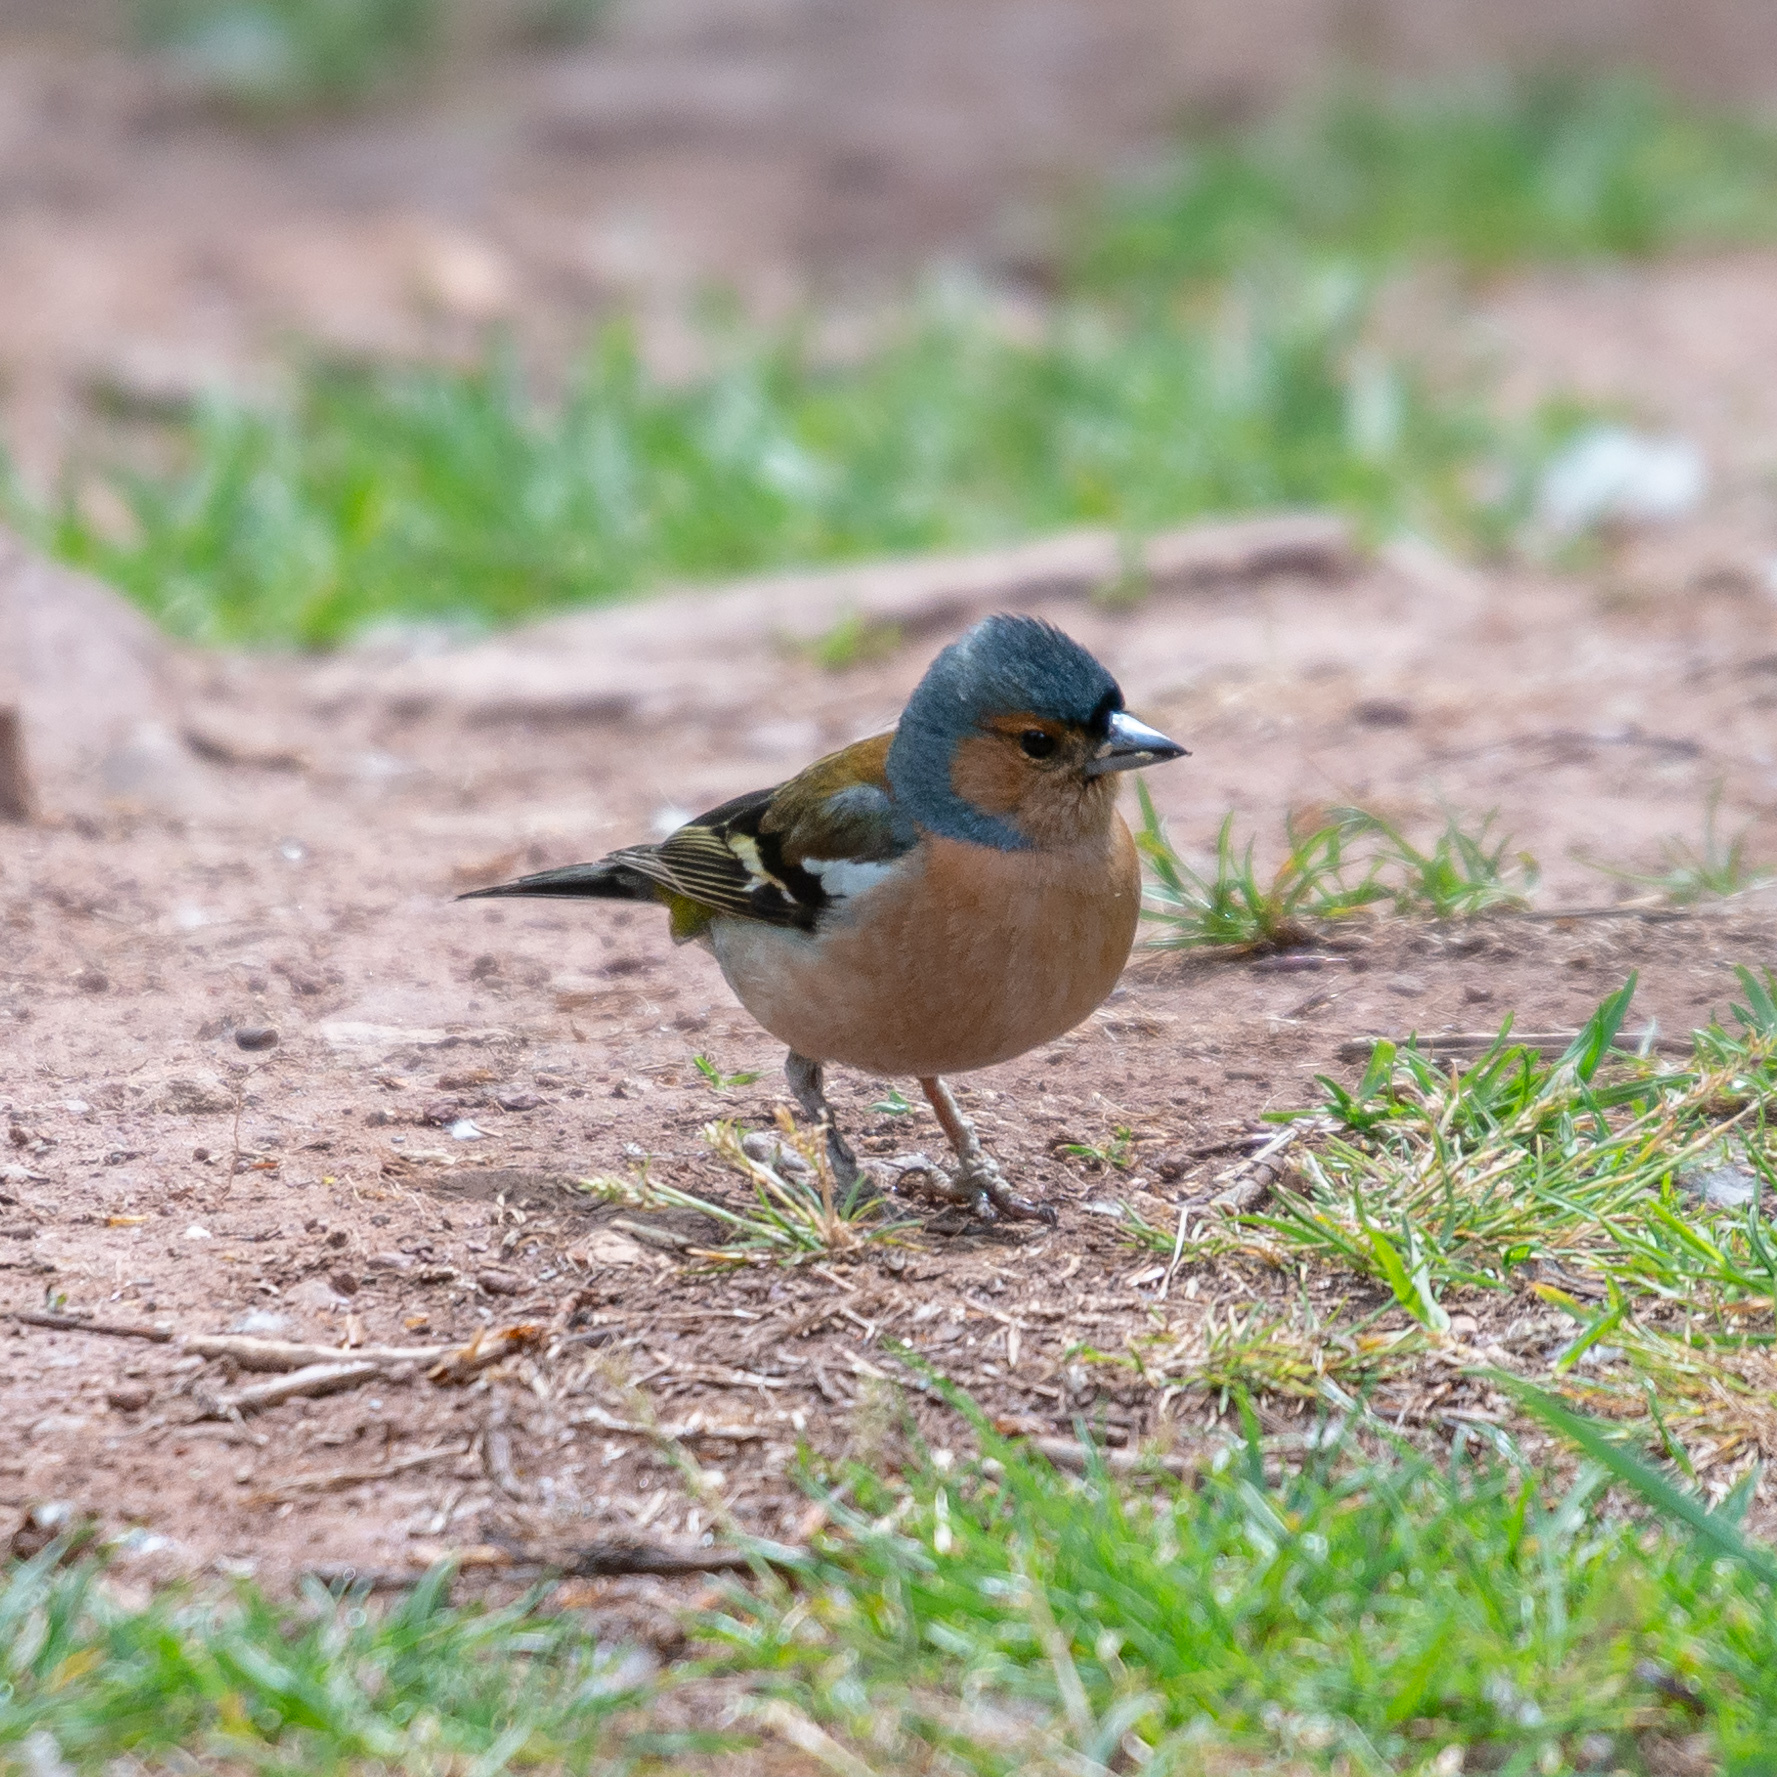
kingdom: Animalia
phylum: Chordata
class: Aves
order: Passeriformes
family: Fringillidae
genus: Fringilla
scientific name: Fringilla coelebs
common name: Common chaffinch
